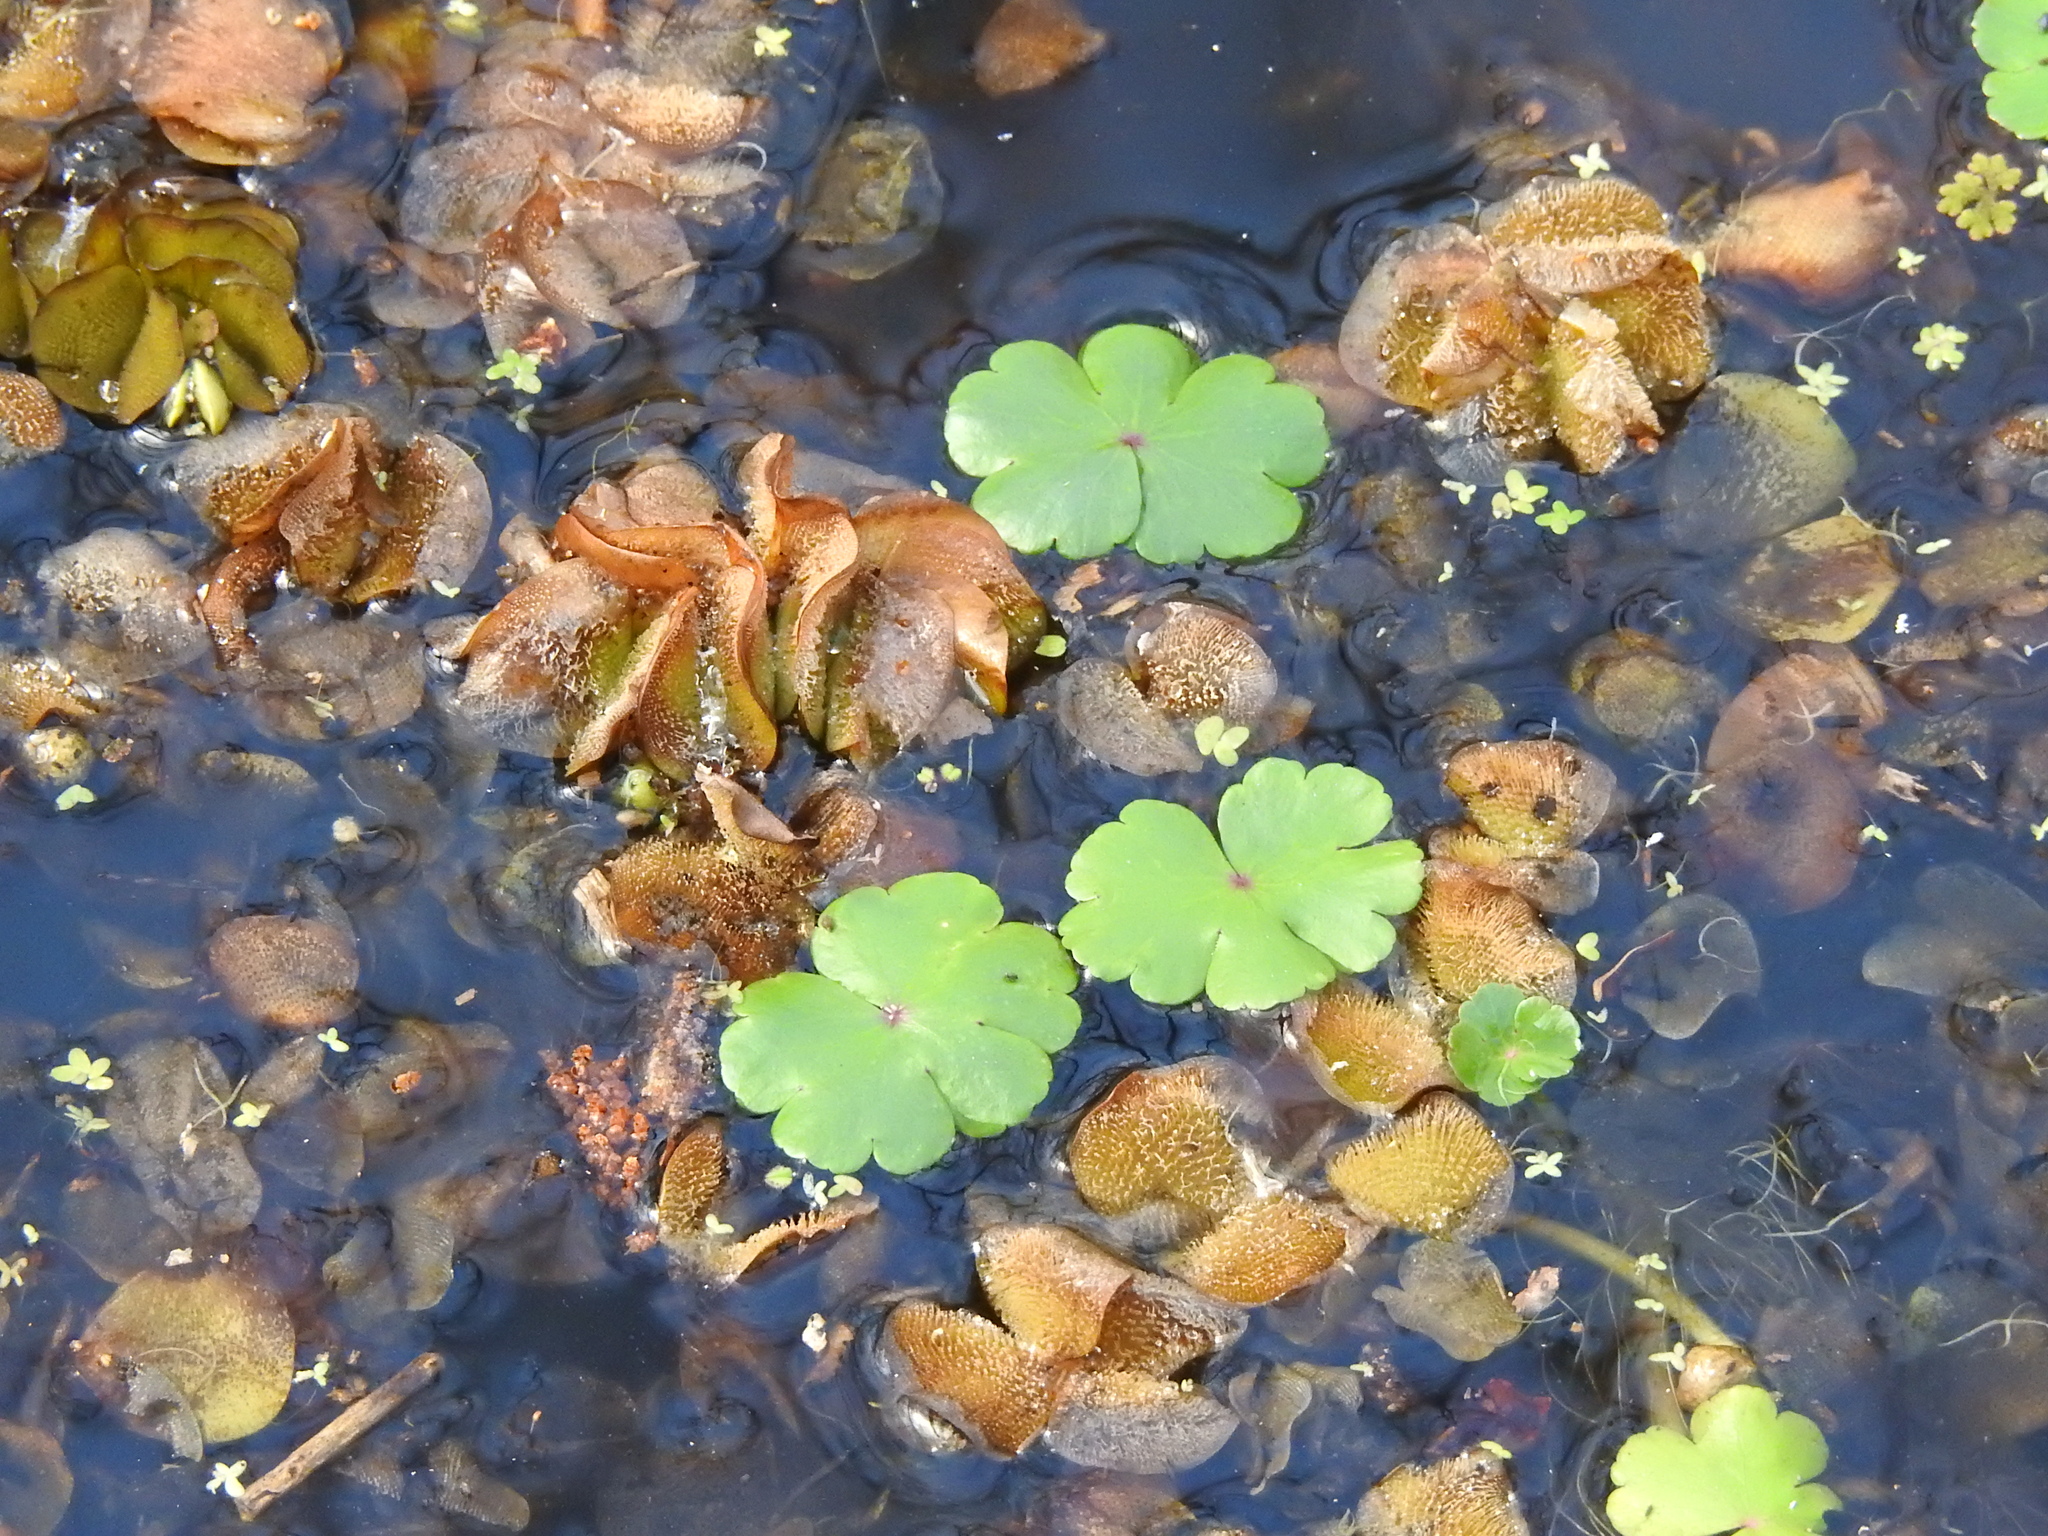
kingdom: Plantae
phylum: Tracheophyta
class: Magnoliopsida
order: Apiales
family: Araliaceae
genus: Hydrocotyle
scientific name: Hydrocotyle ranunculoides
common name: Floating pennywort
